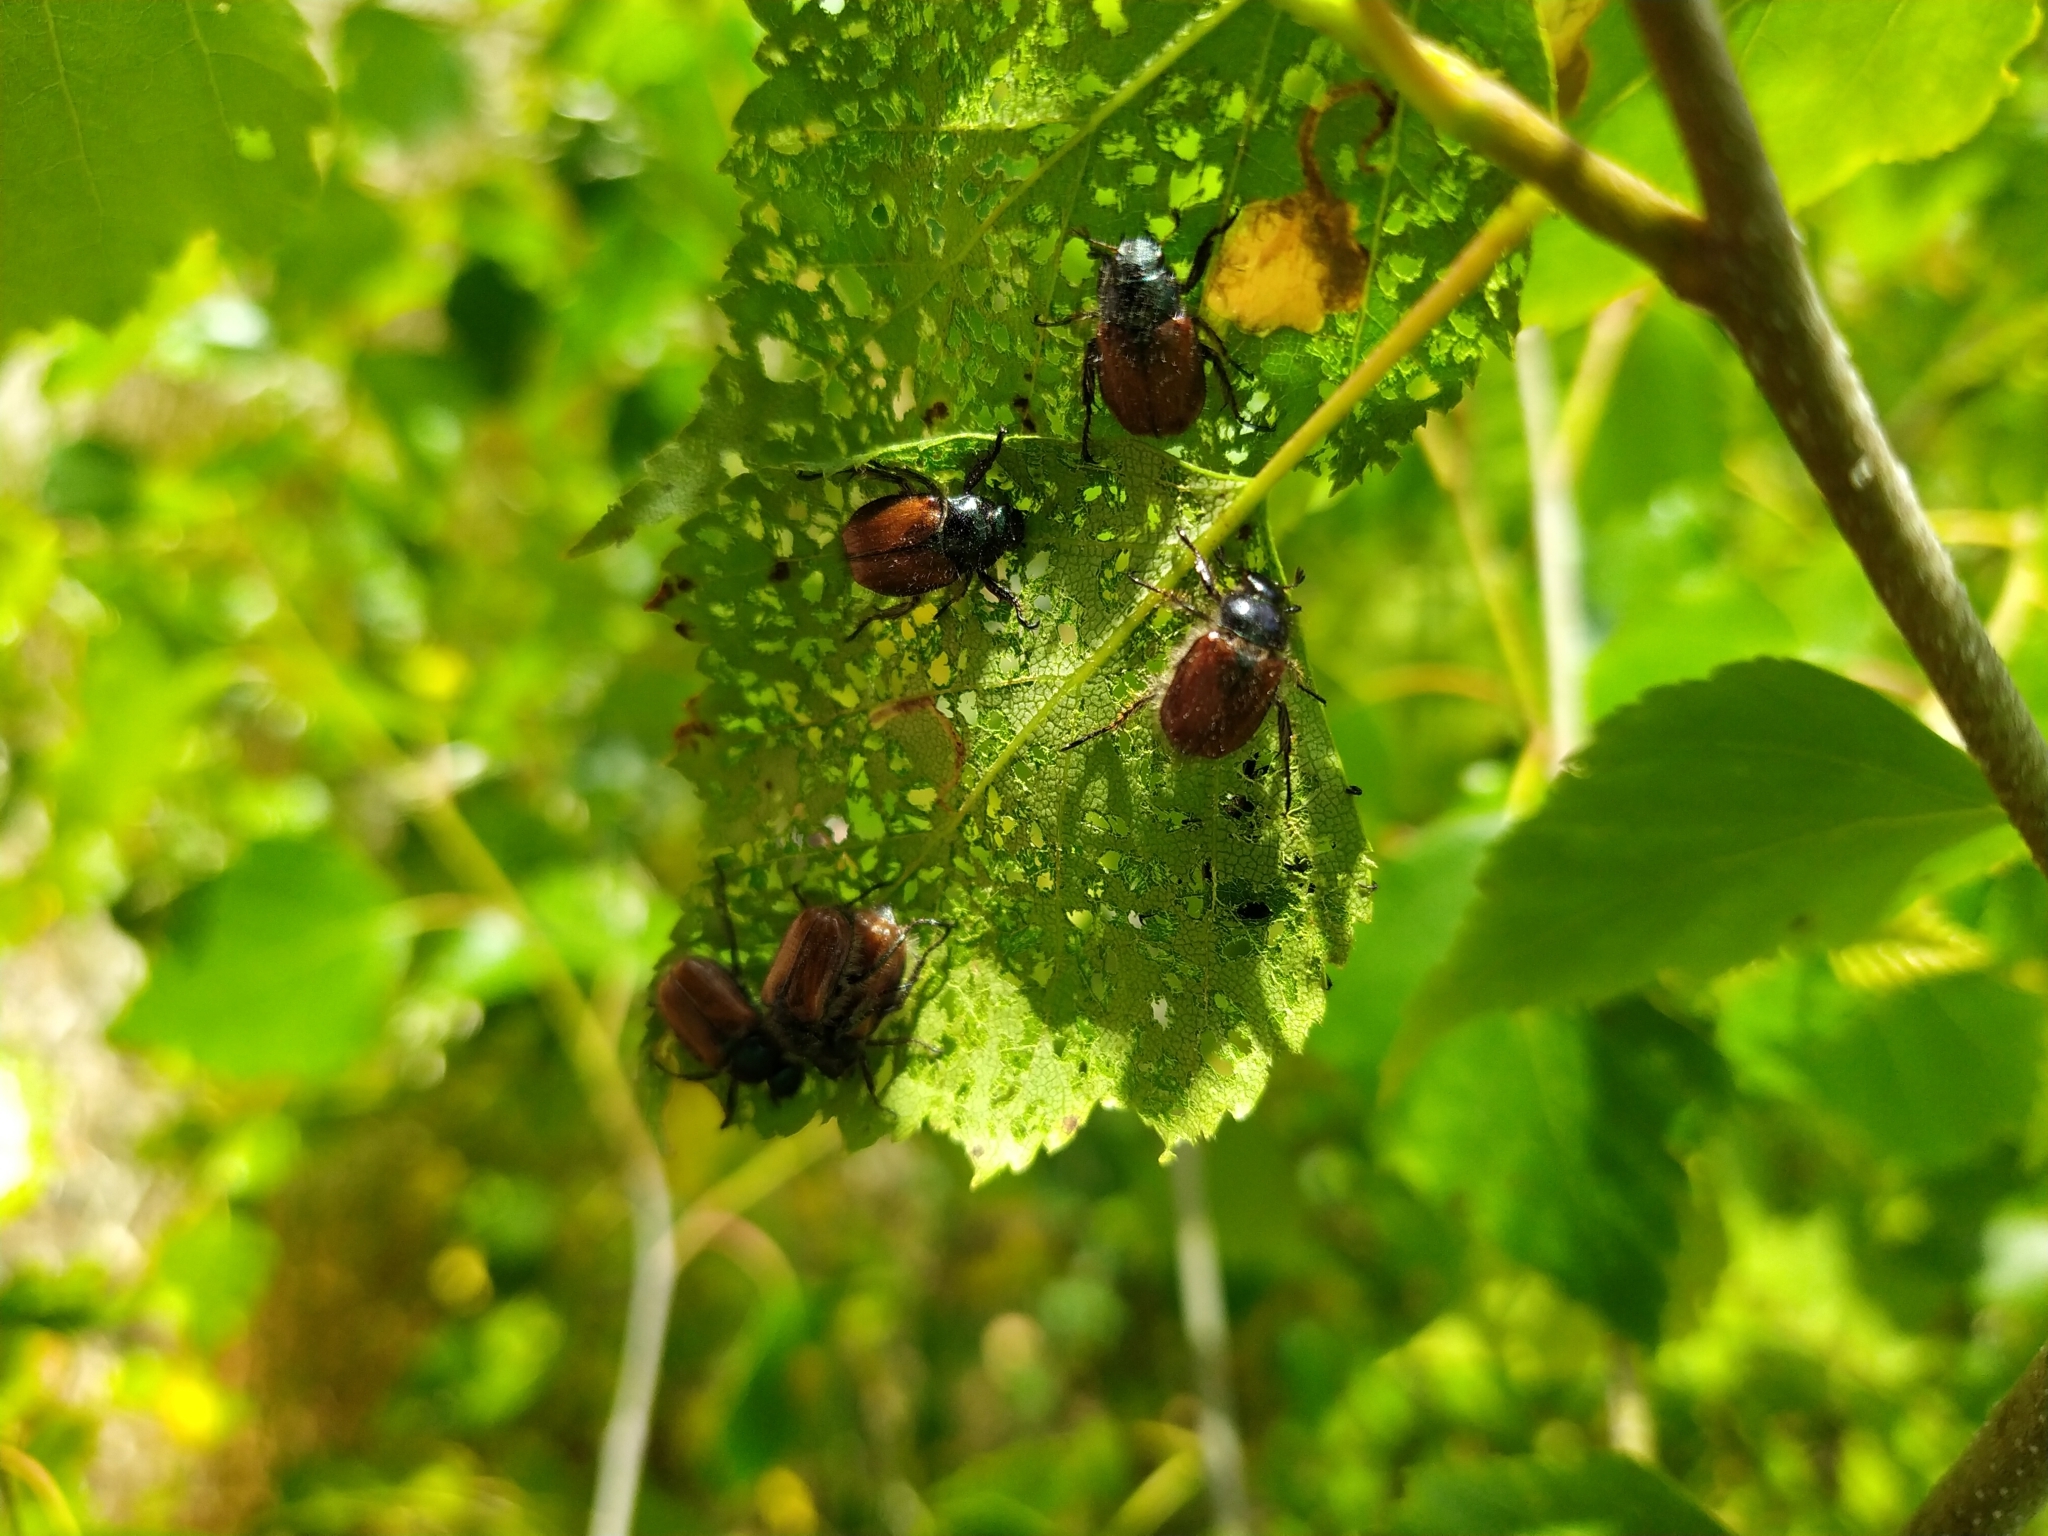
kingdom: Animalia
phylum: Arthropoda
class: Insecta
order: Coleoptera
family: Scarabaeidae
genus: Phyllopertha
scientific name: Phyllopertha horticola
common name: Garden chafer
